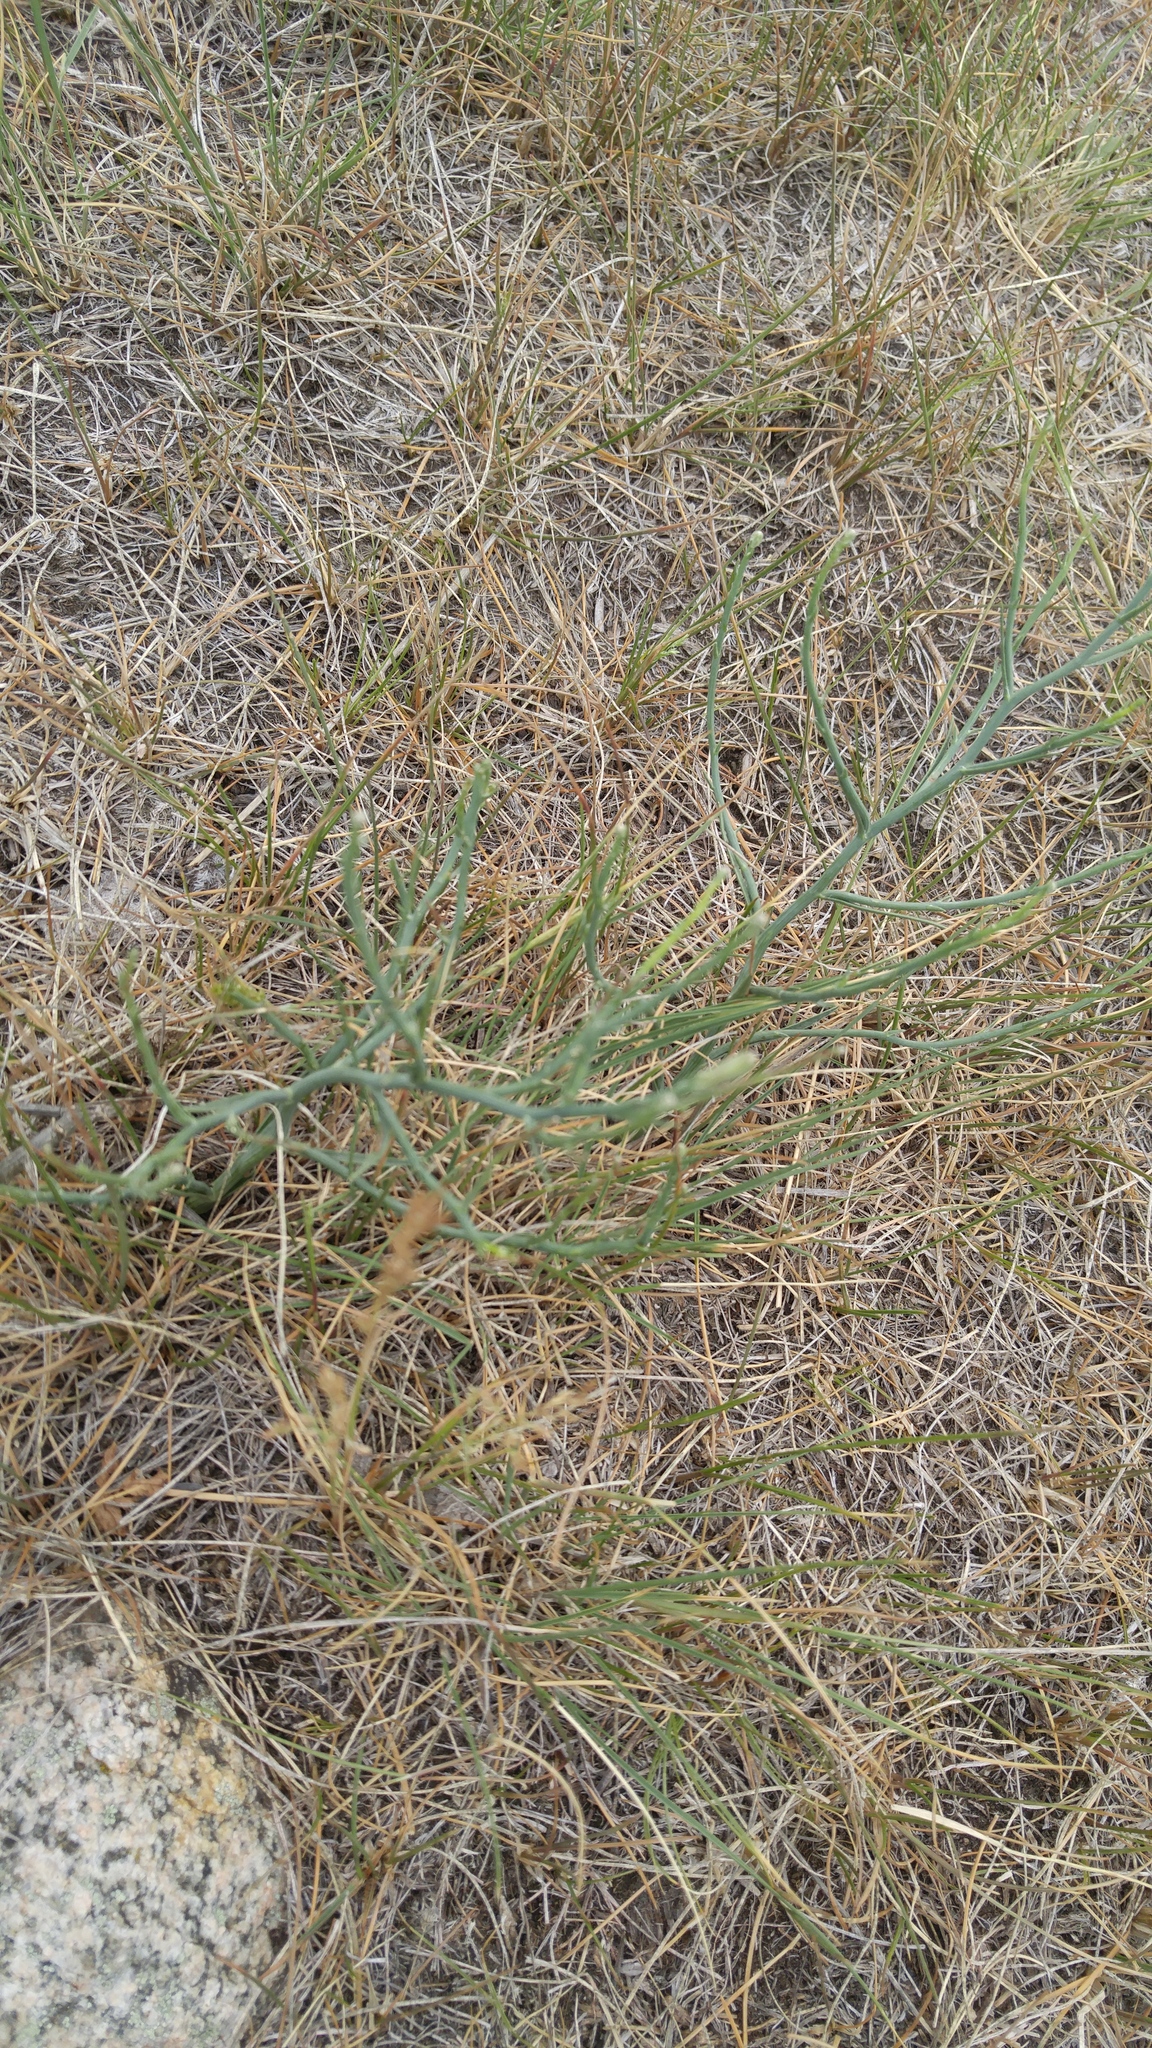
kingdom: Plantae
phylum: Tracheophyta
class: Magnoliopsida
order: Asterales
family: Asteraceae
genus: Lygodesmia
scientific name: Lygodesmia juncea
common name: Common skeletonweed
